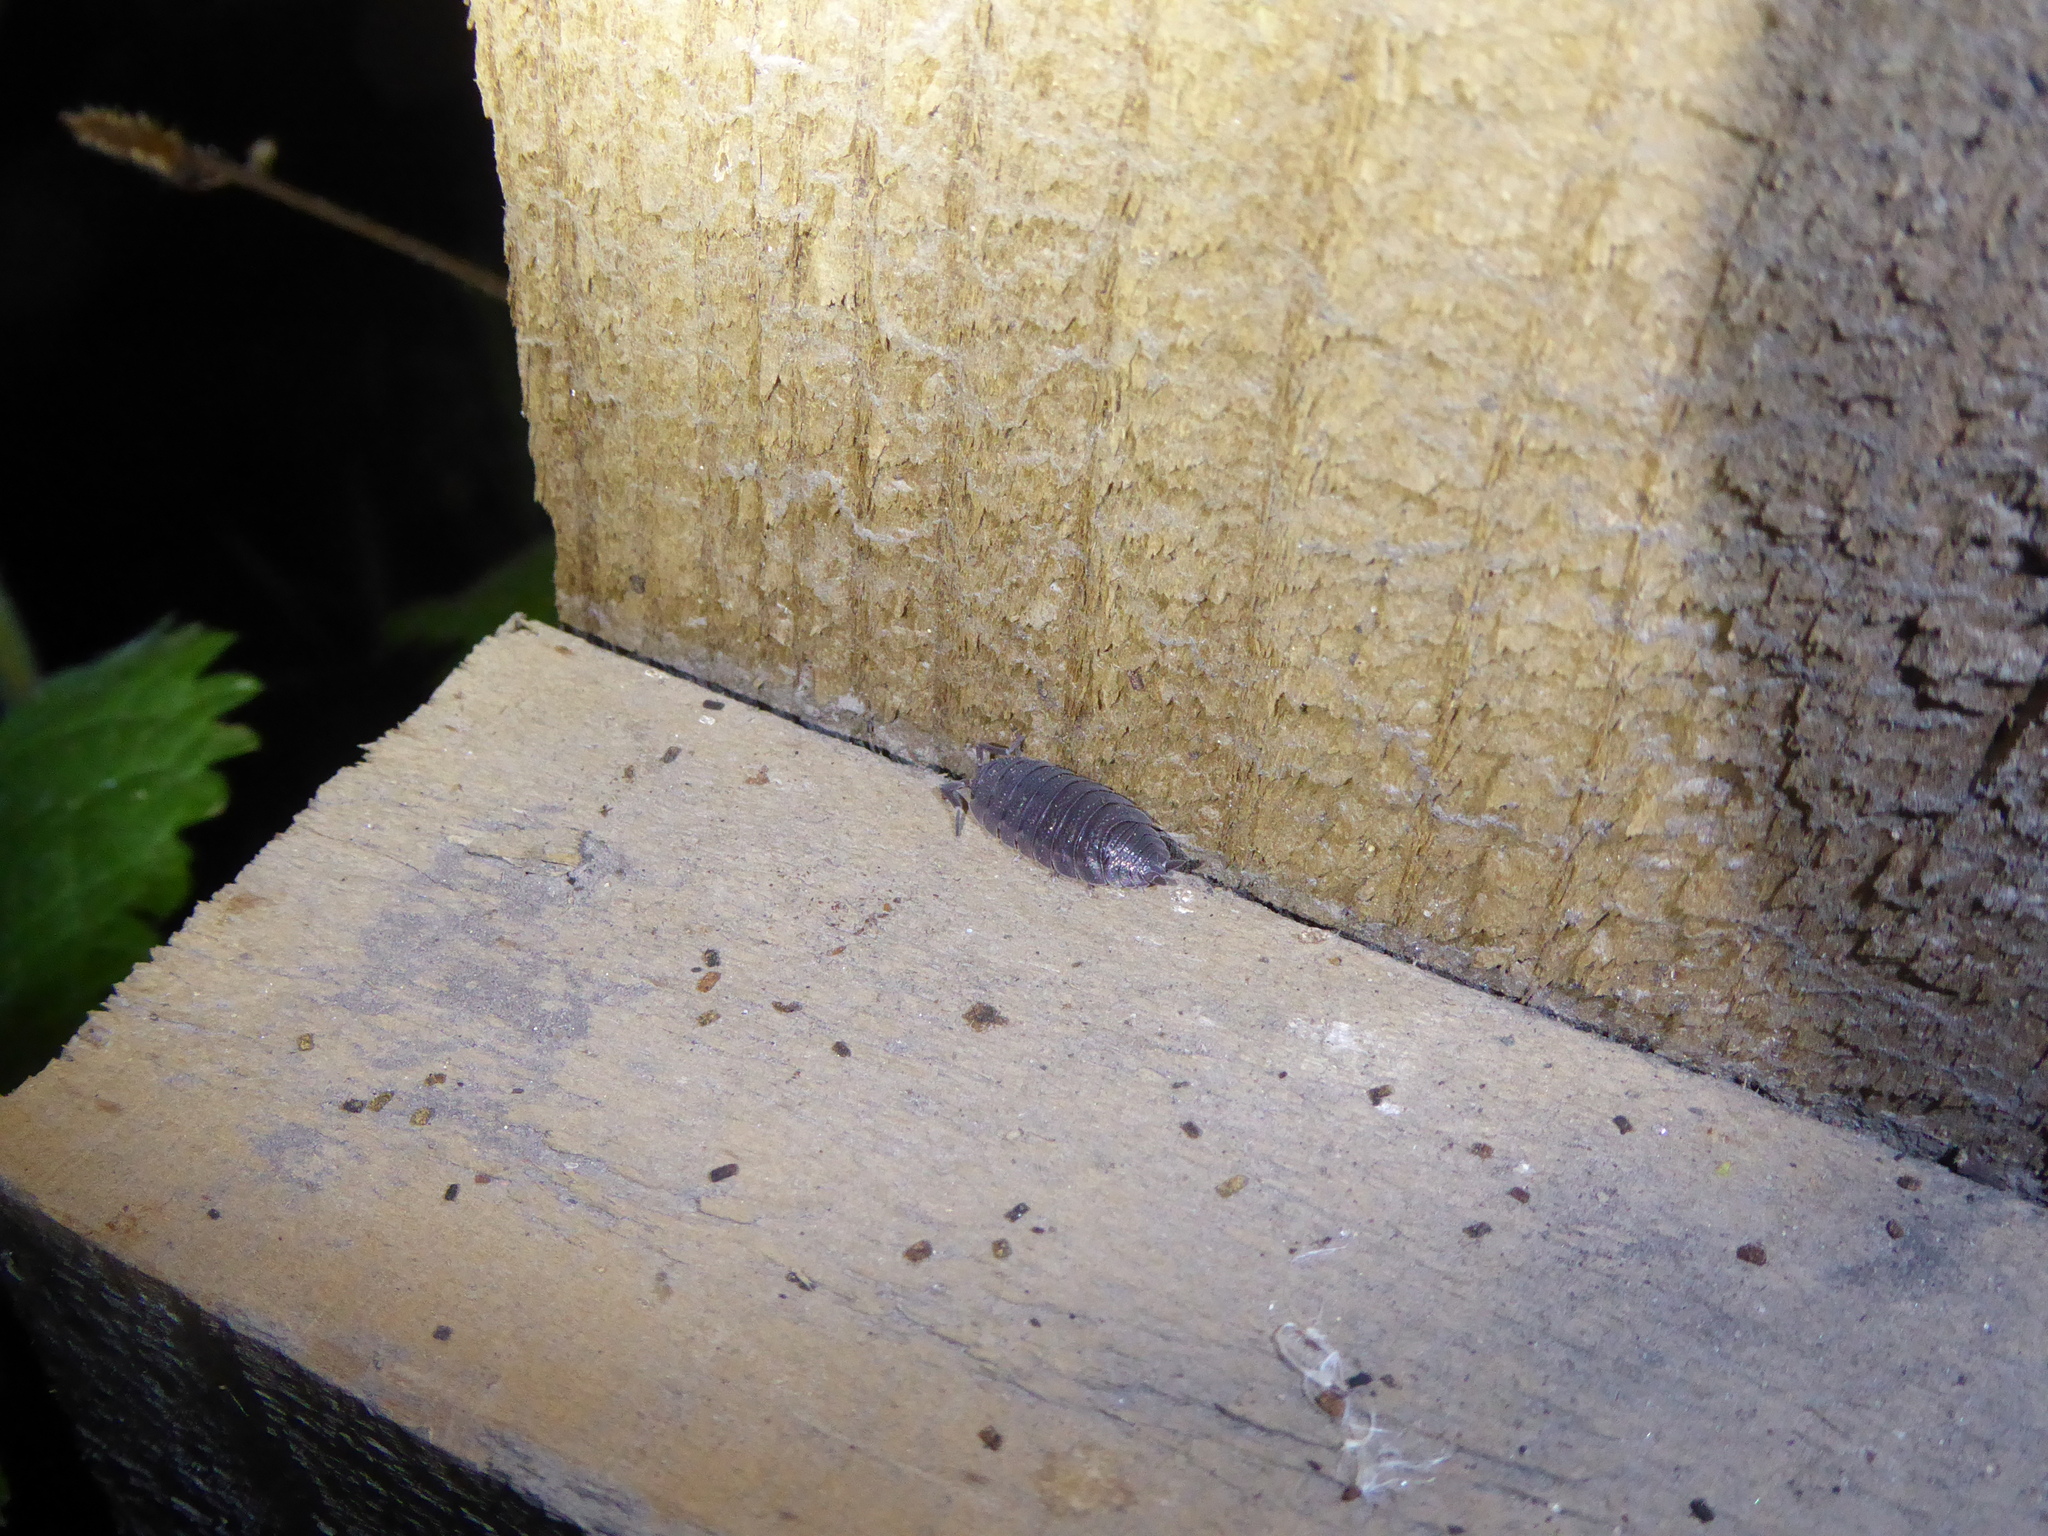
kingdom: Animalia
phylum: Arthropoda
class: Malacostraca
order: Isopoda
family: Porcellionidae
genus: Porcellio
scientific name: Porcellio scaber
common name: Common rough woodlouse
